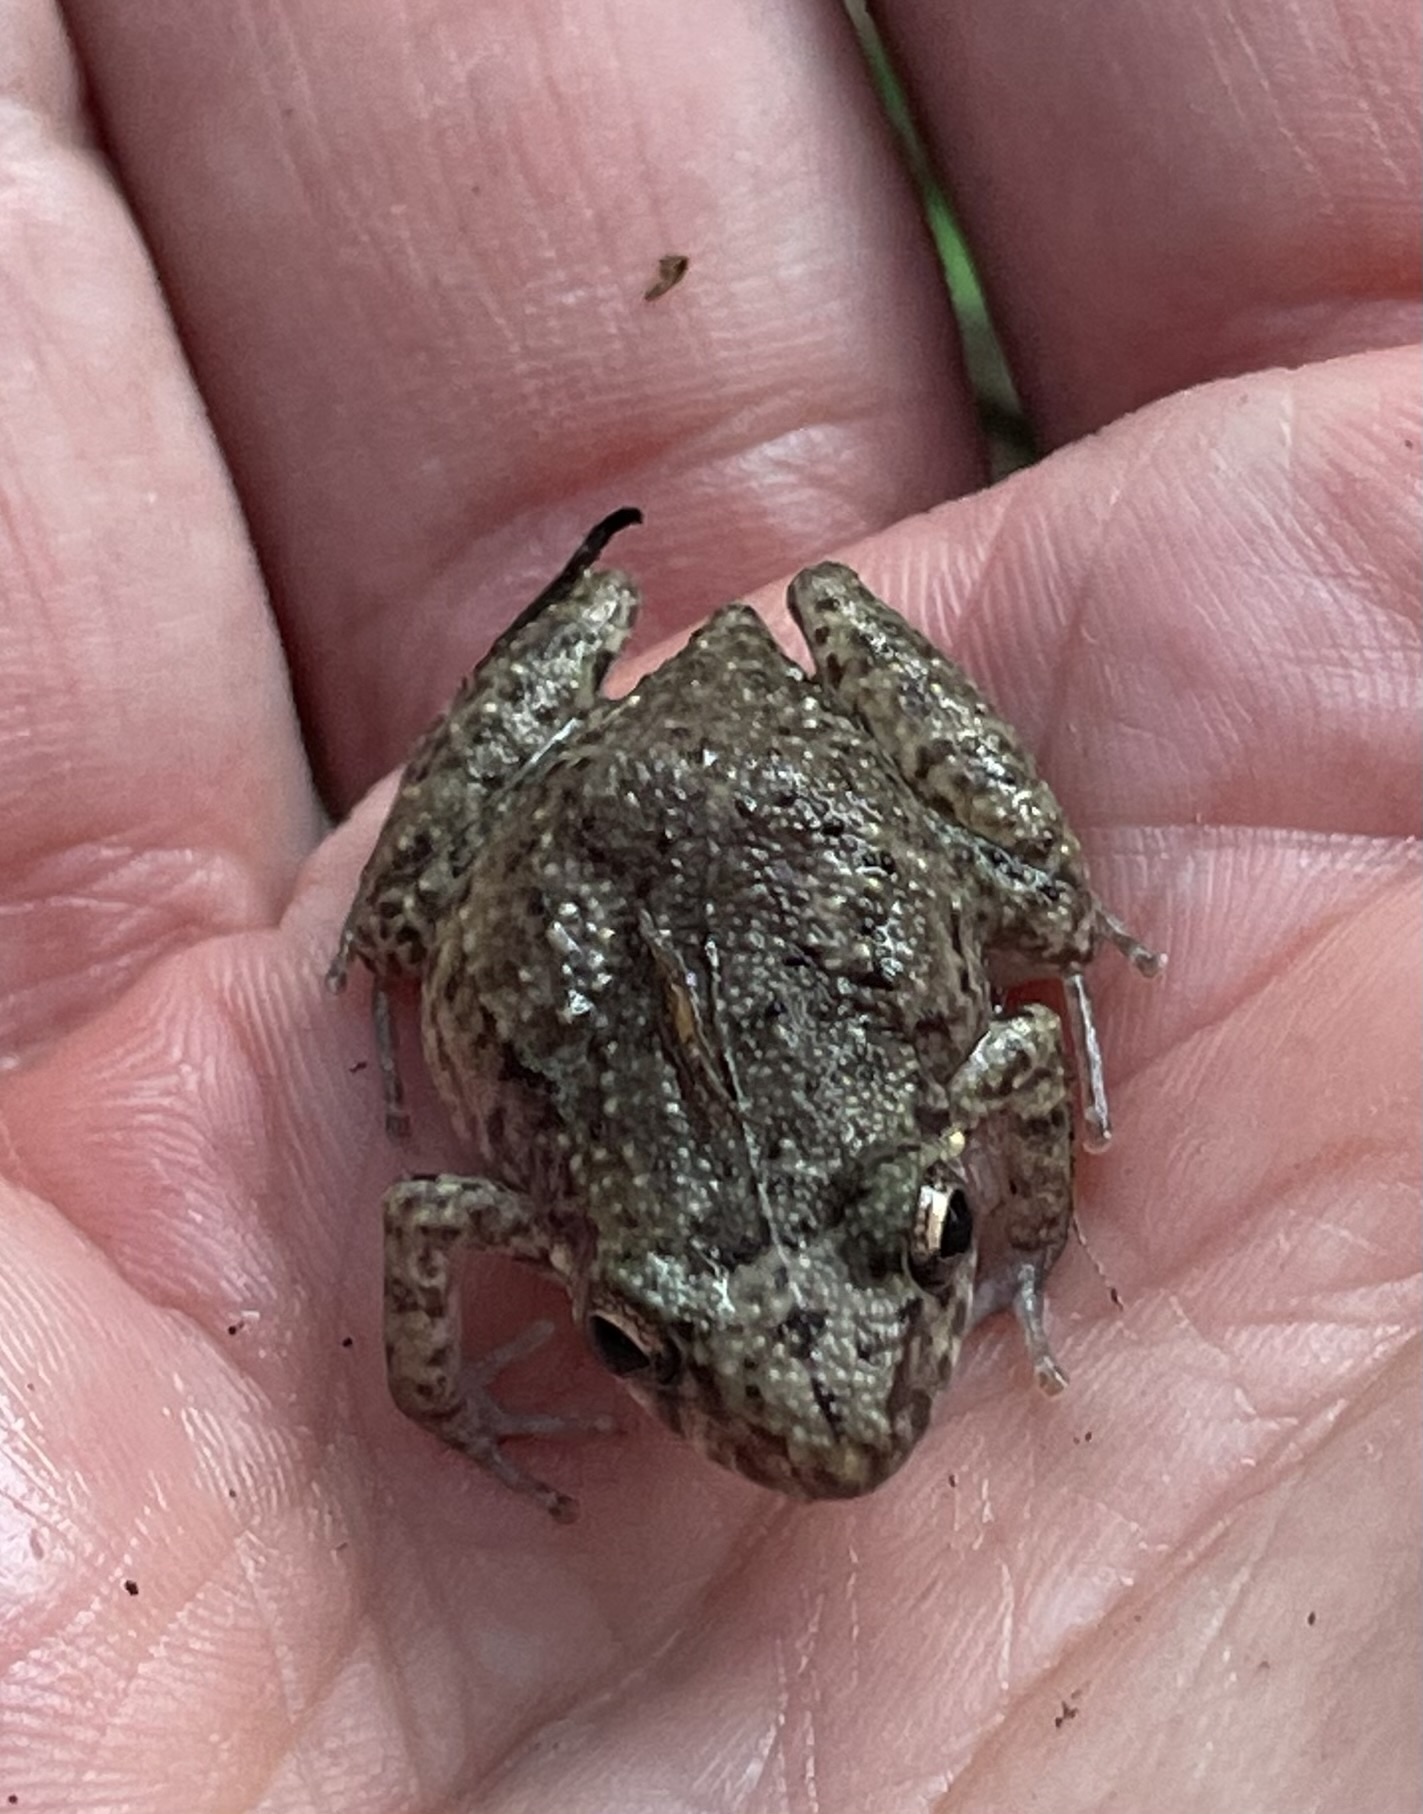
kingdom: Animalia
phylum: Chordata
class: Amphibia
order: Anura
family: Eleutherodactylidae
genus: Eleutherodactylus
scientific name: Eleutherodactylus planirostris
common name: Greenhouse frog
